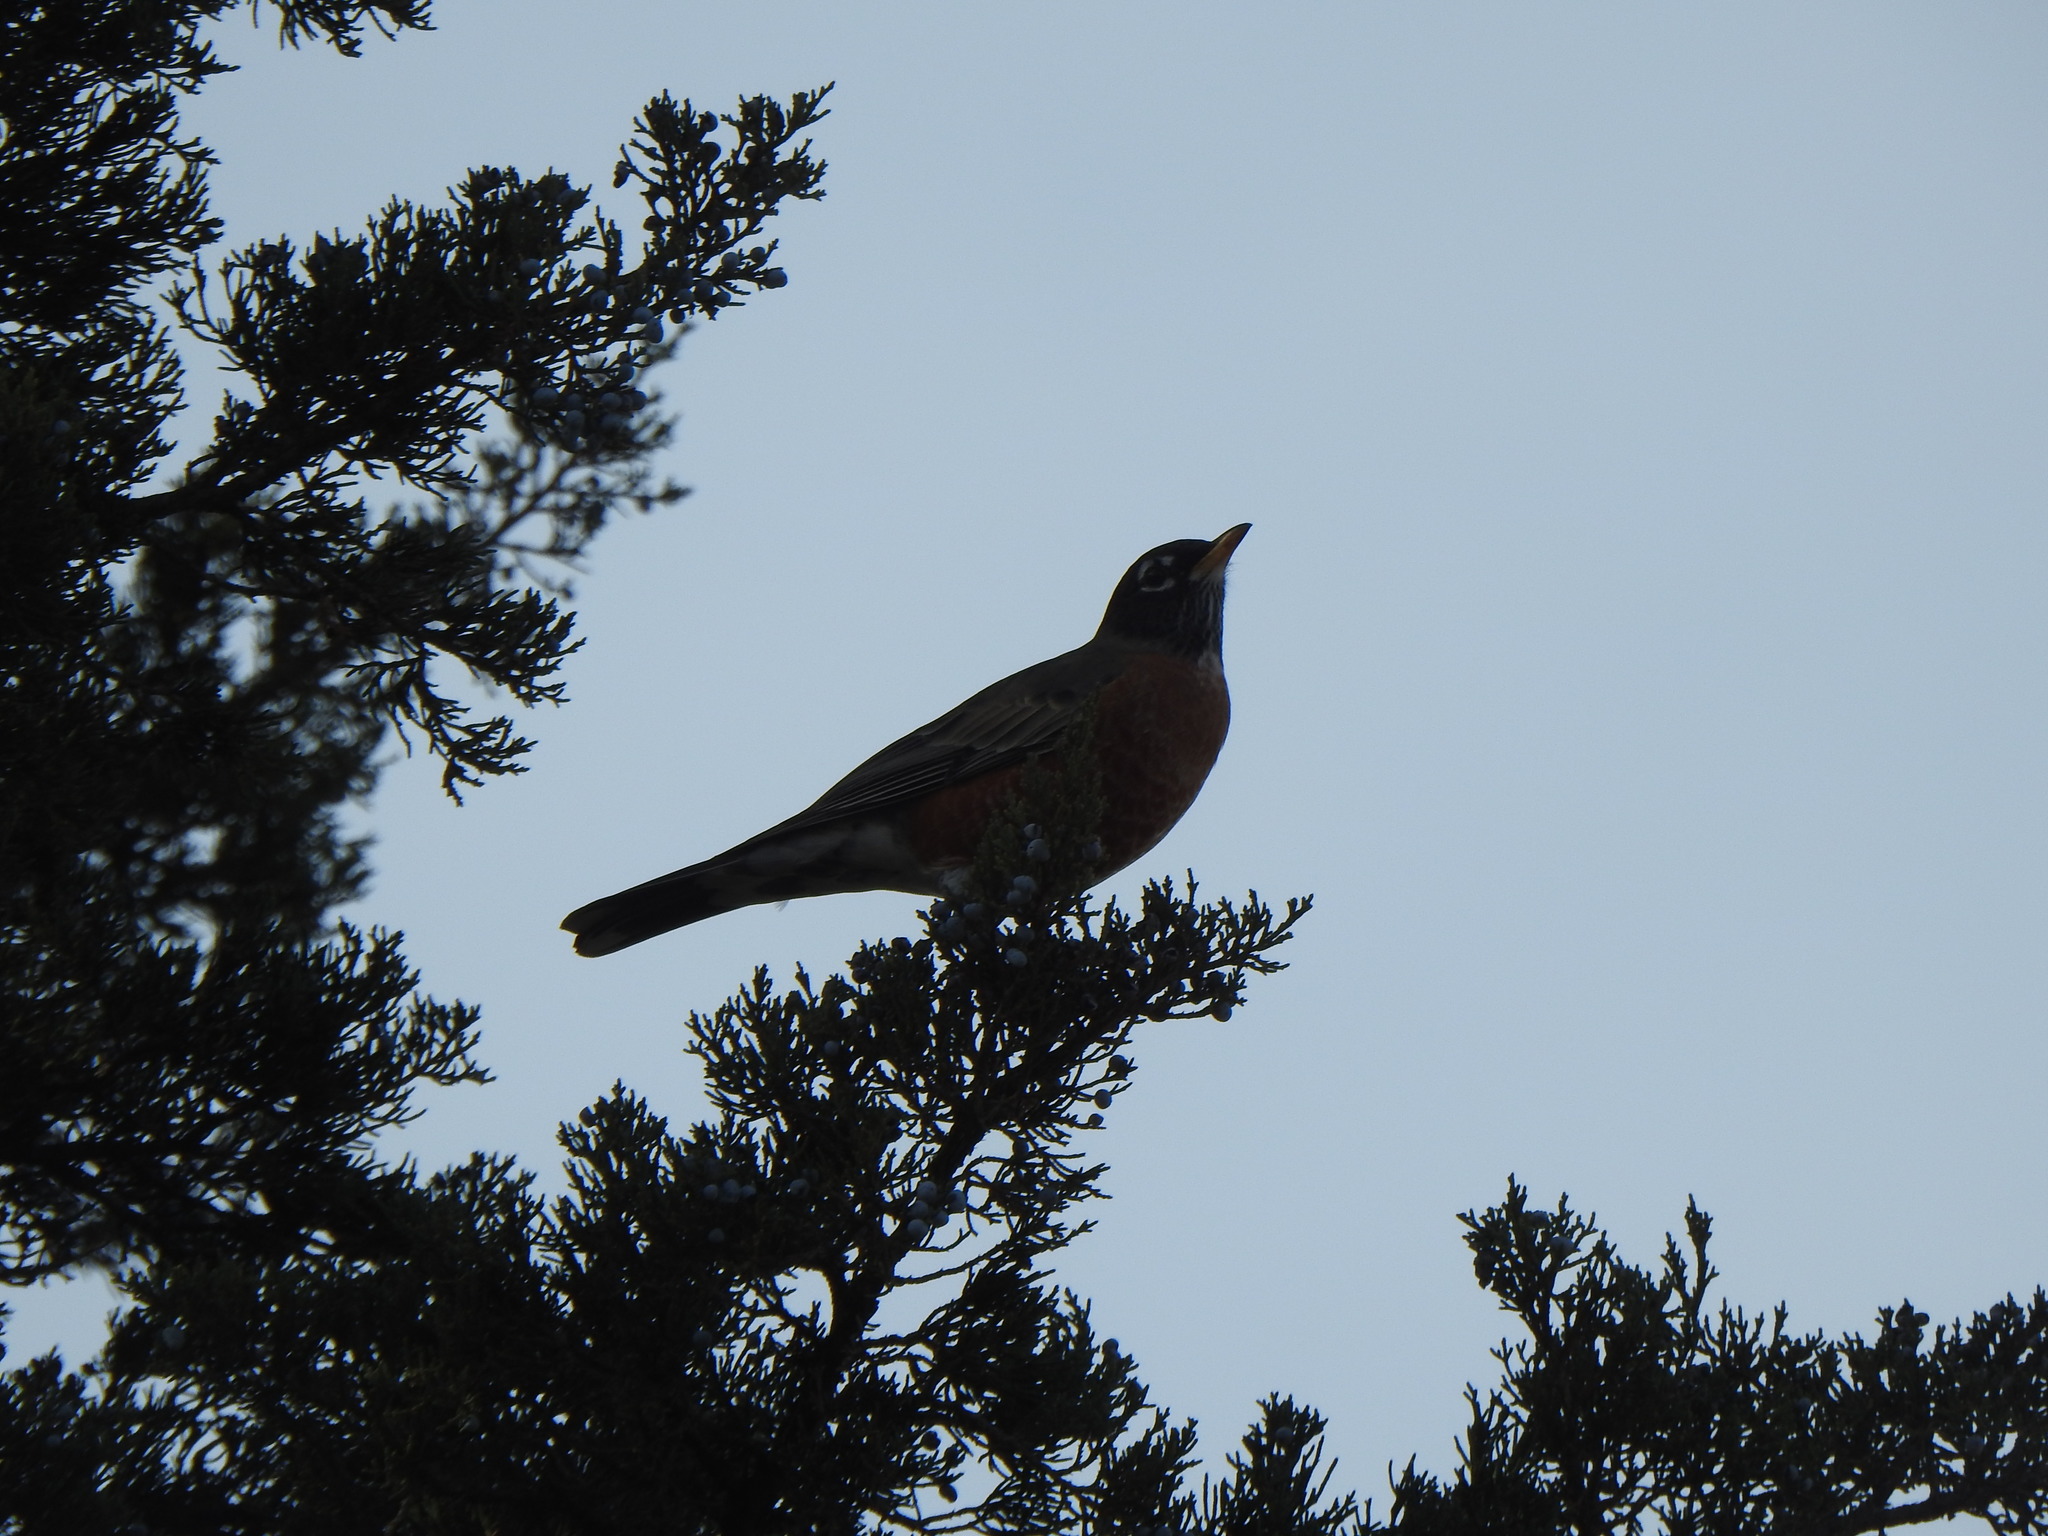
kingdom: Animalia
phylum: Chordata
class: Aves
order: Passeriformes
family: Turdidae
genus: Turdus
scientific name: Turdus migratorius
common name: American robin
